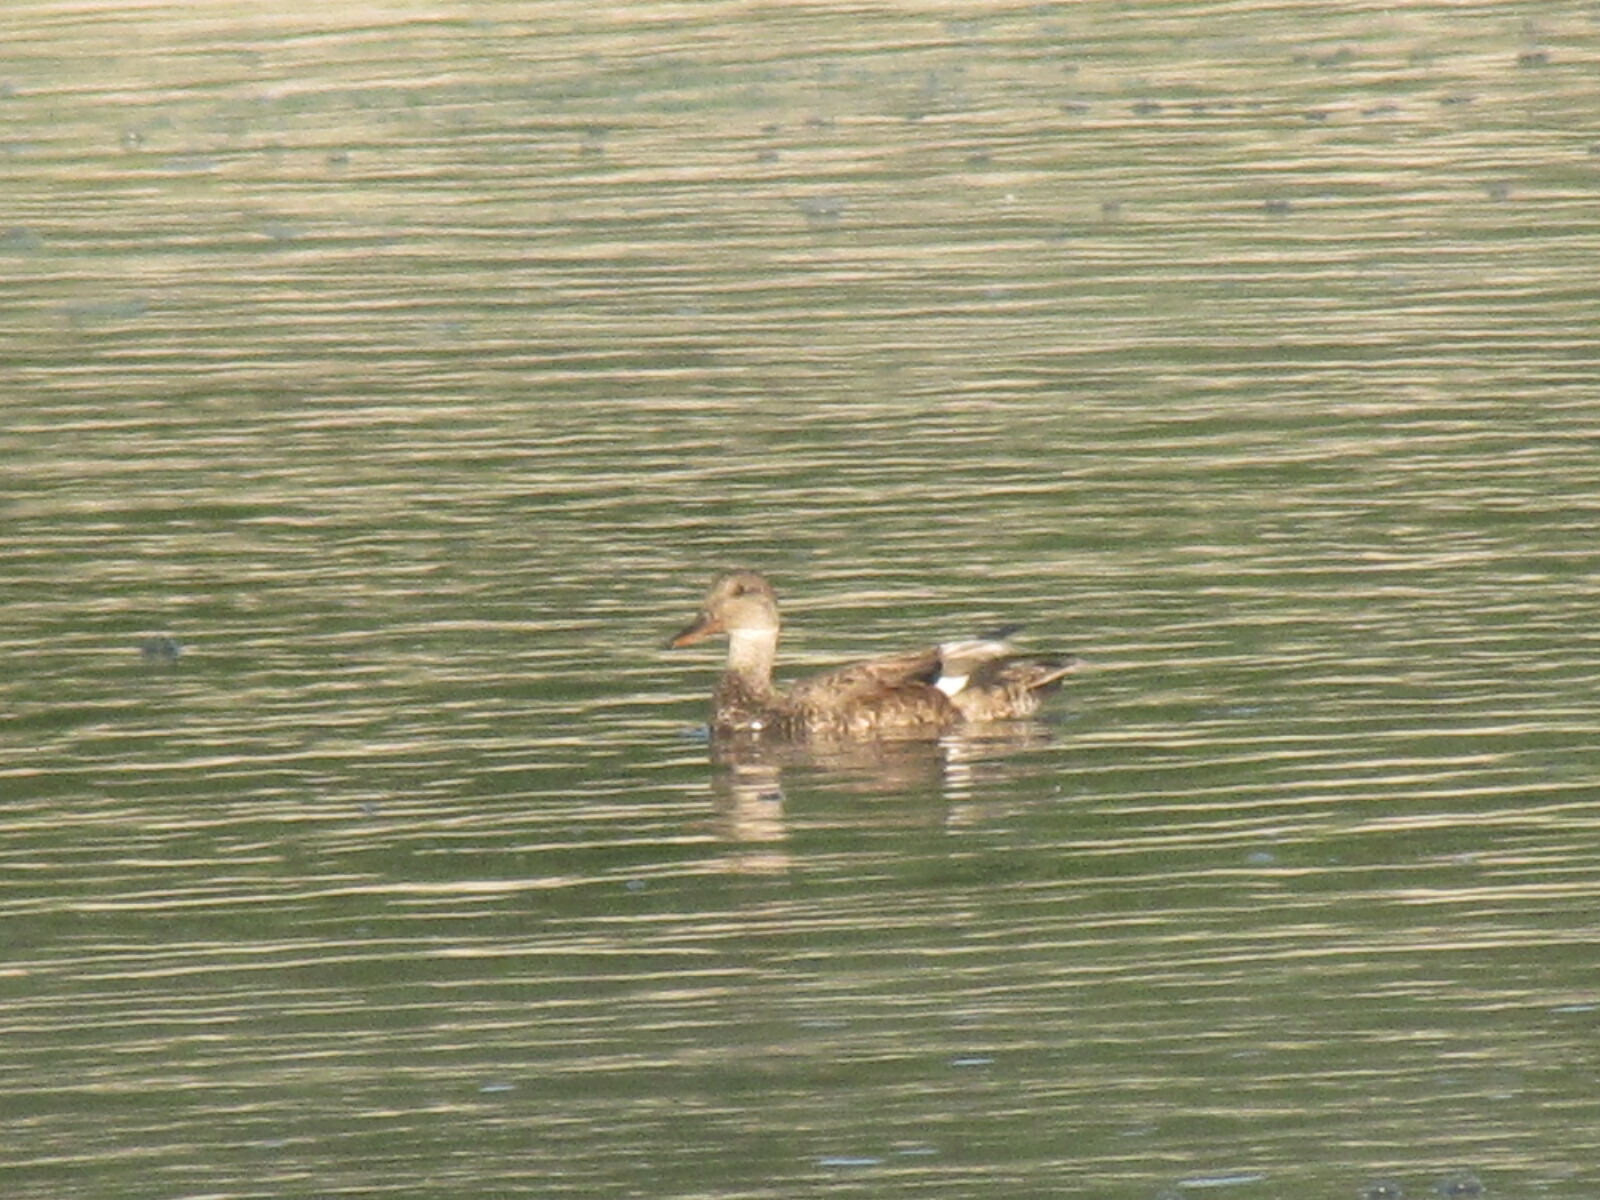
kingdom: Animalia
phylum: Chordata
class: Aves
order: Anseriformes
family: Anatidae
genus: Mareca
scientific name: Mareca strepera
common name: Gadwall
